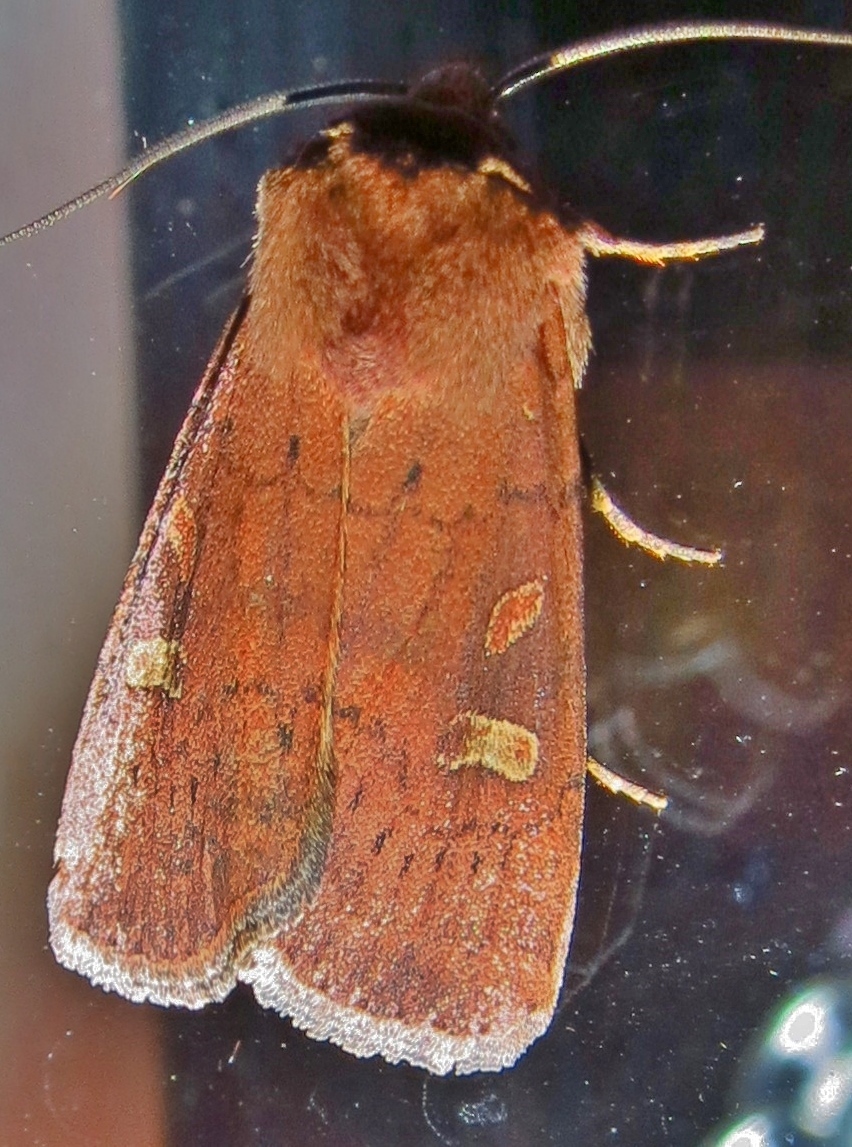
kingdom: Animalia
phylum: Arthropoda
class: Insecta
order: Lepidoptera
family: Noctuidae
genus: Xestia
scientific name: Xestia xanthographa
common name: Square-spot rustic
